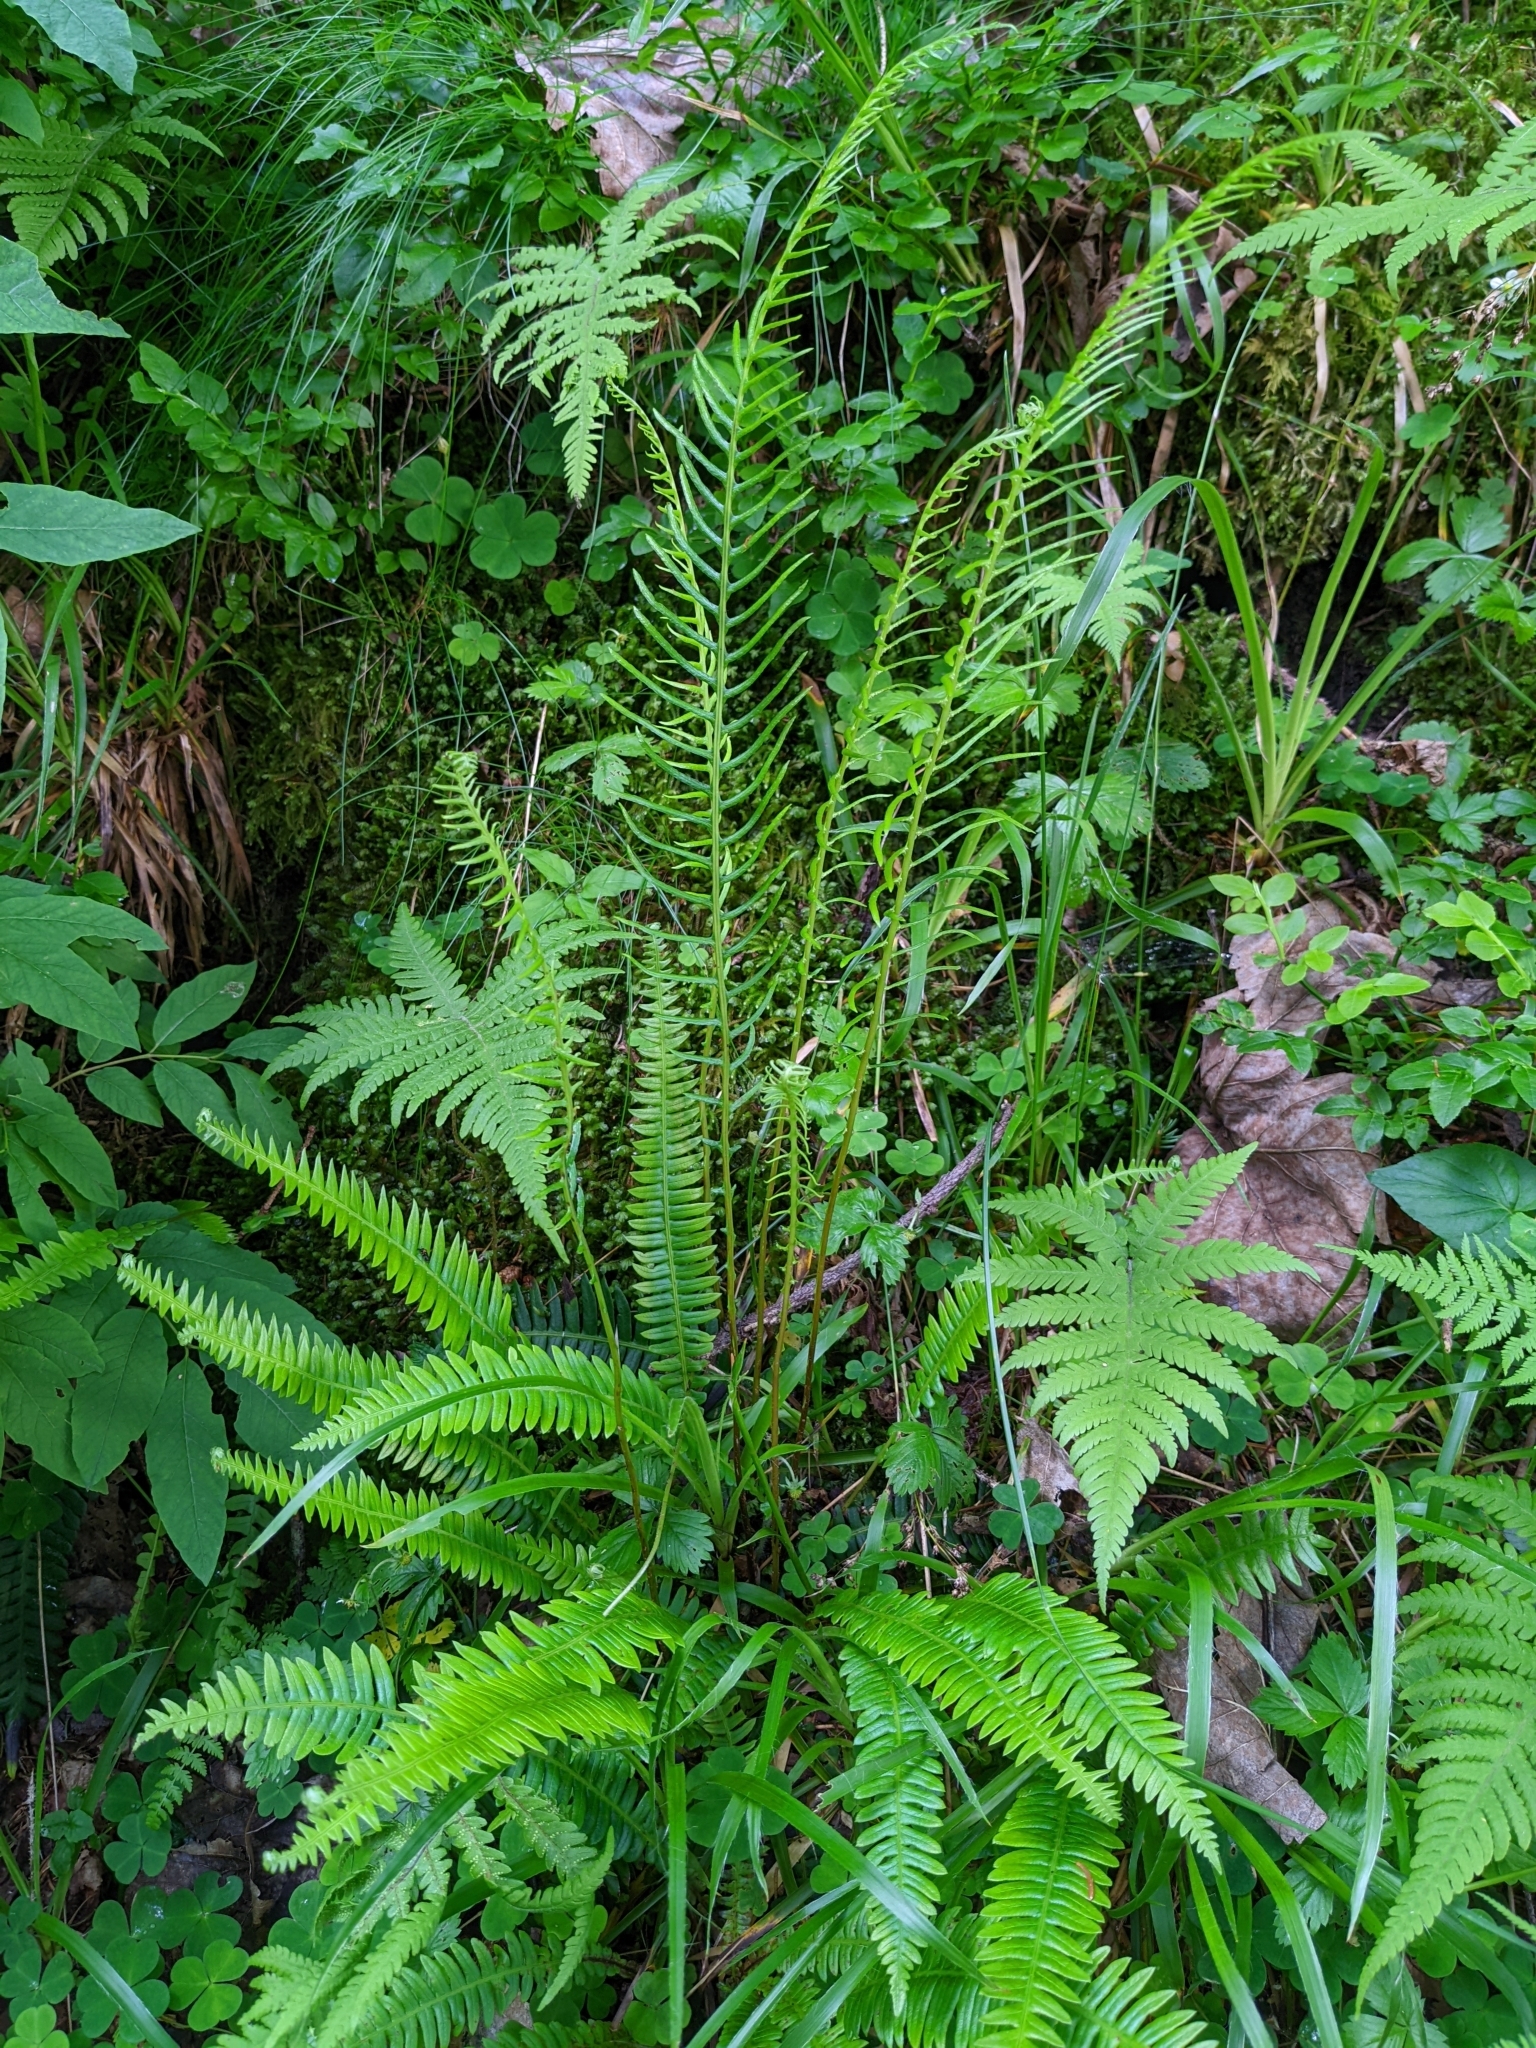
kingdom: Plantae
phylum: Tracheophyta
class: Polypodiopsida
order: Polypodiales
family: Blechnaceae
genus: Struthiopteris
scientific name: Struthiopteris spicant
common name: Deer fern
